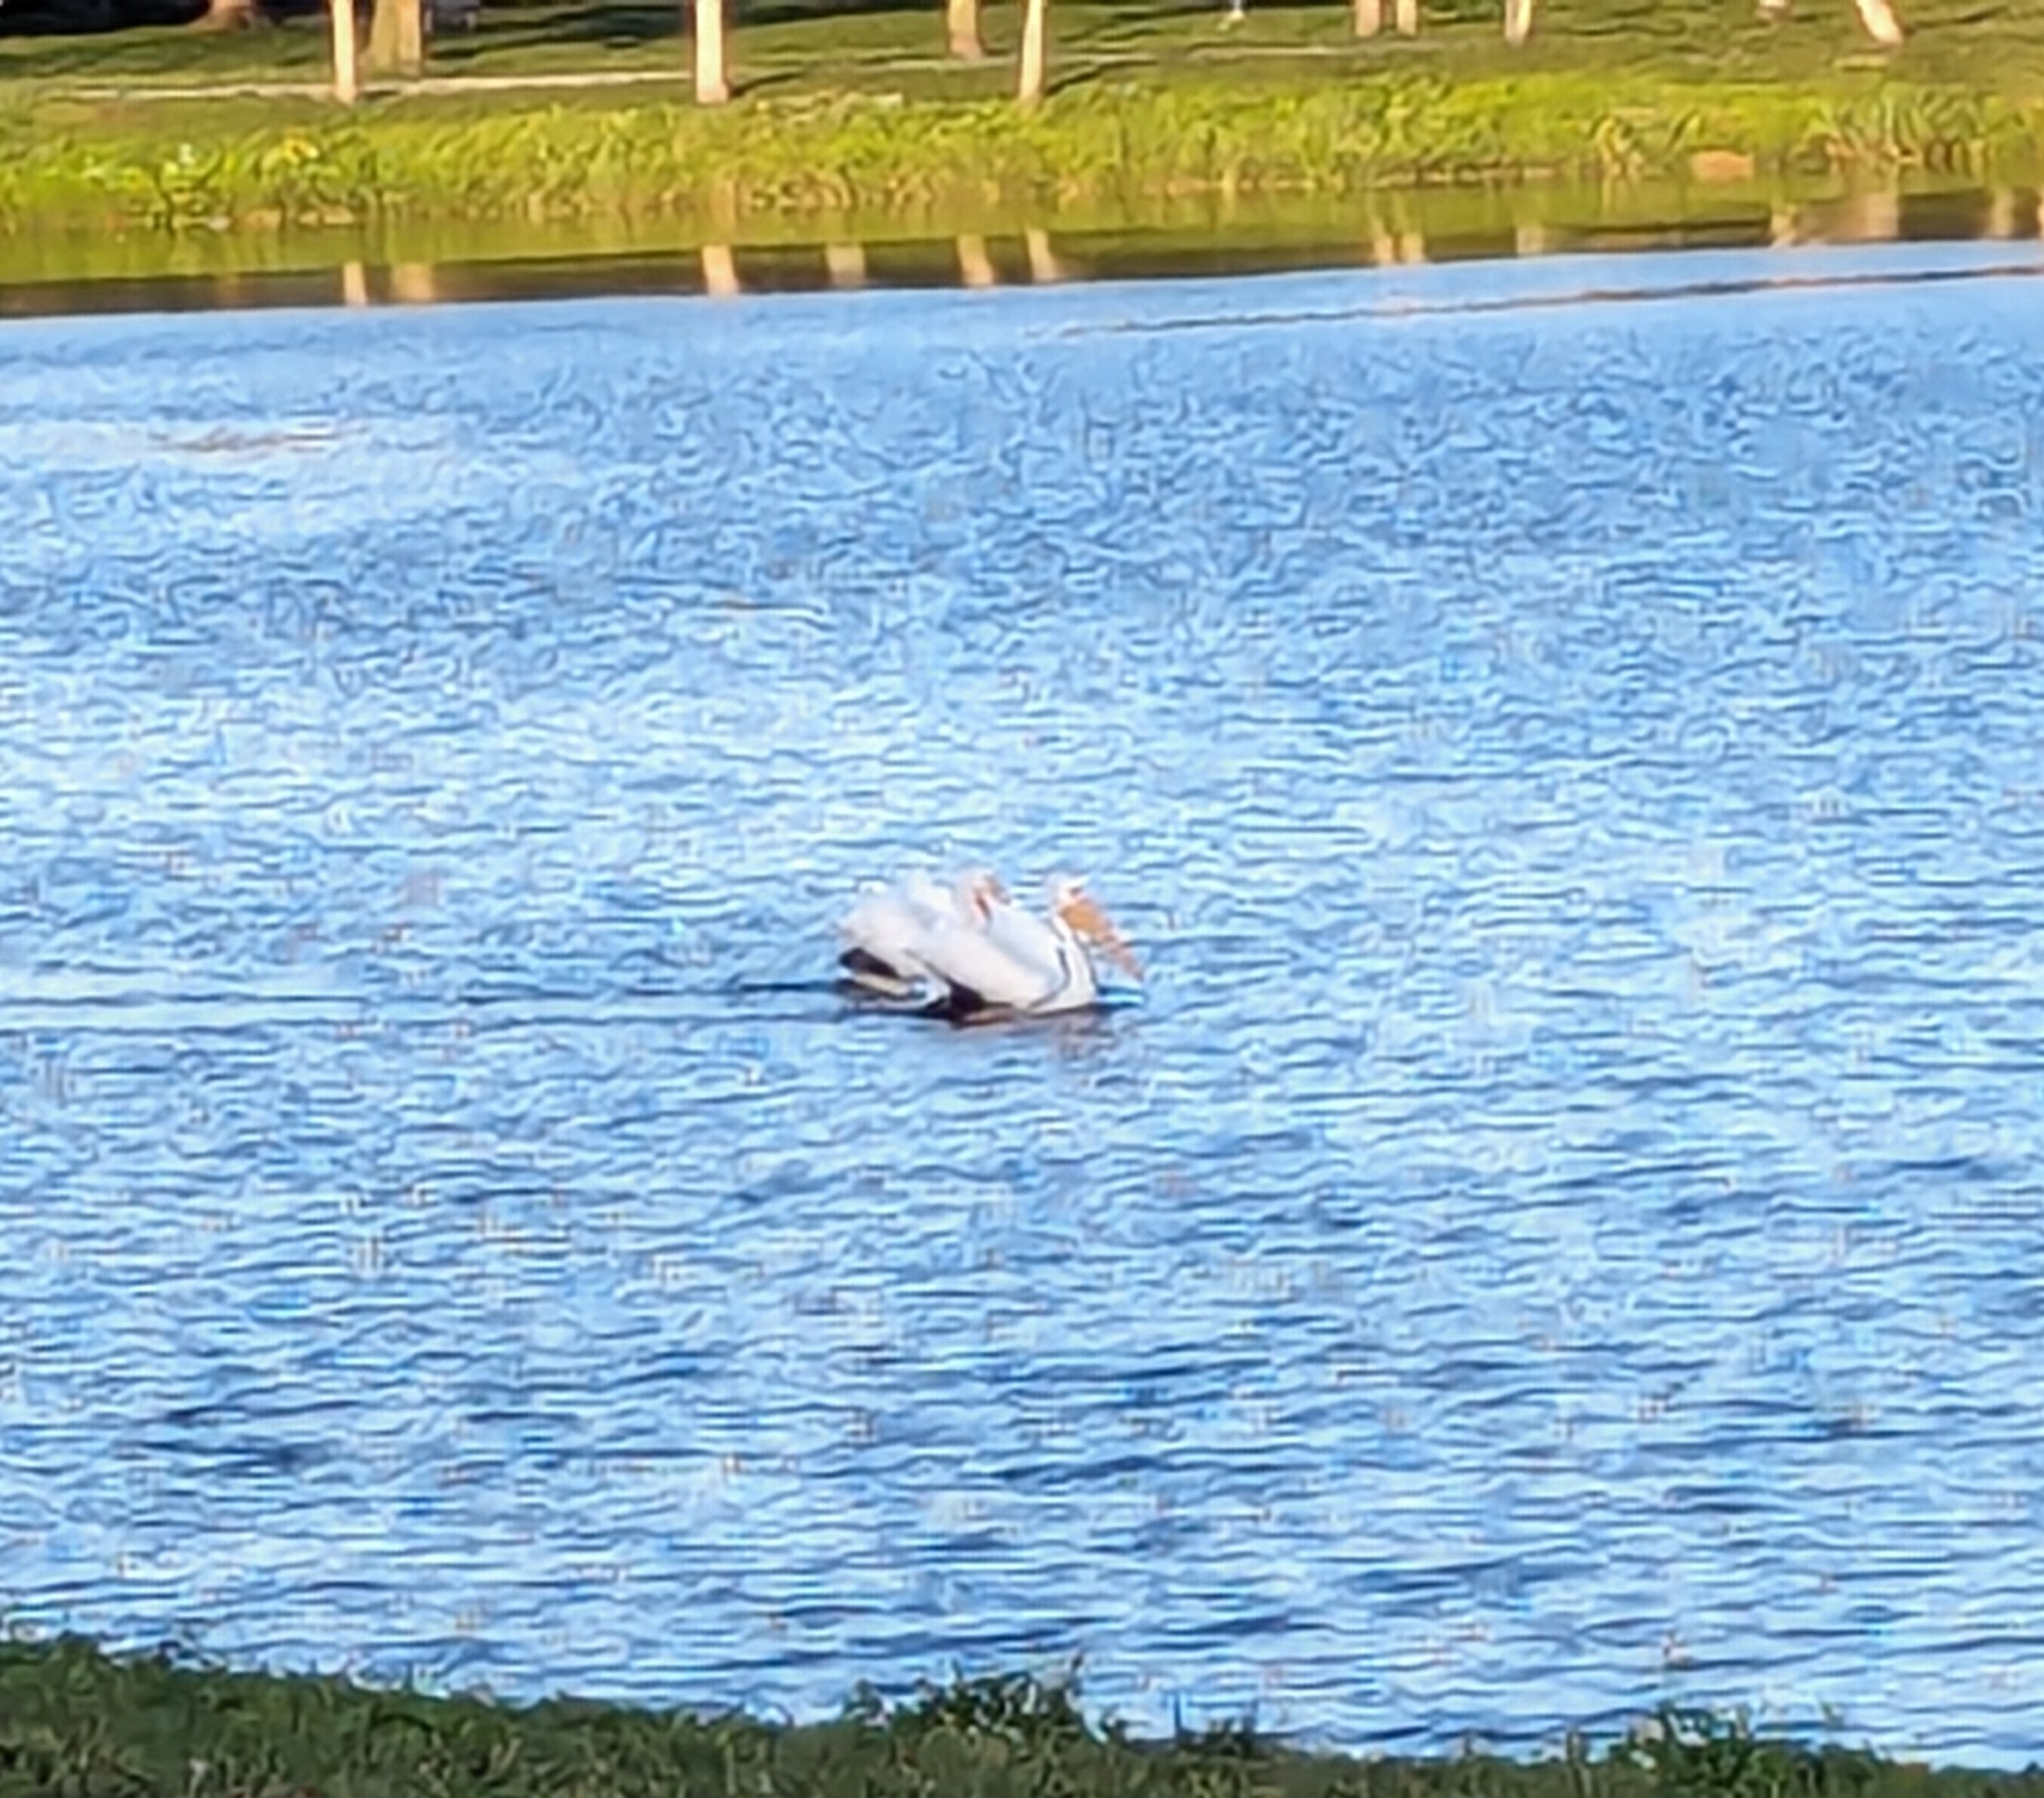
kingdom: Animalia
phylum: Chordata
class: Aves
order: Pelecaniformes
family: Pelecanidae
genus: Pelecanus
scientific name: Pelecanus erythrorhynchos
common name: American white pelican
